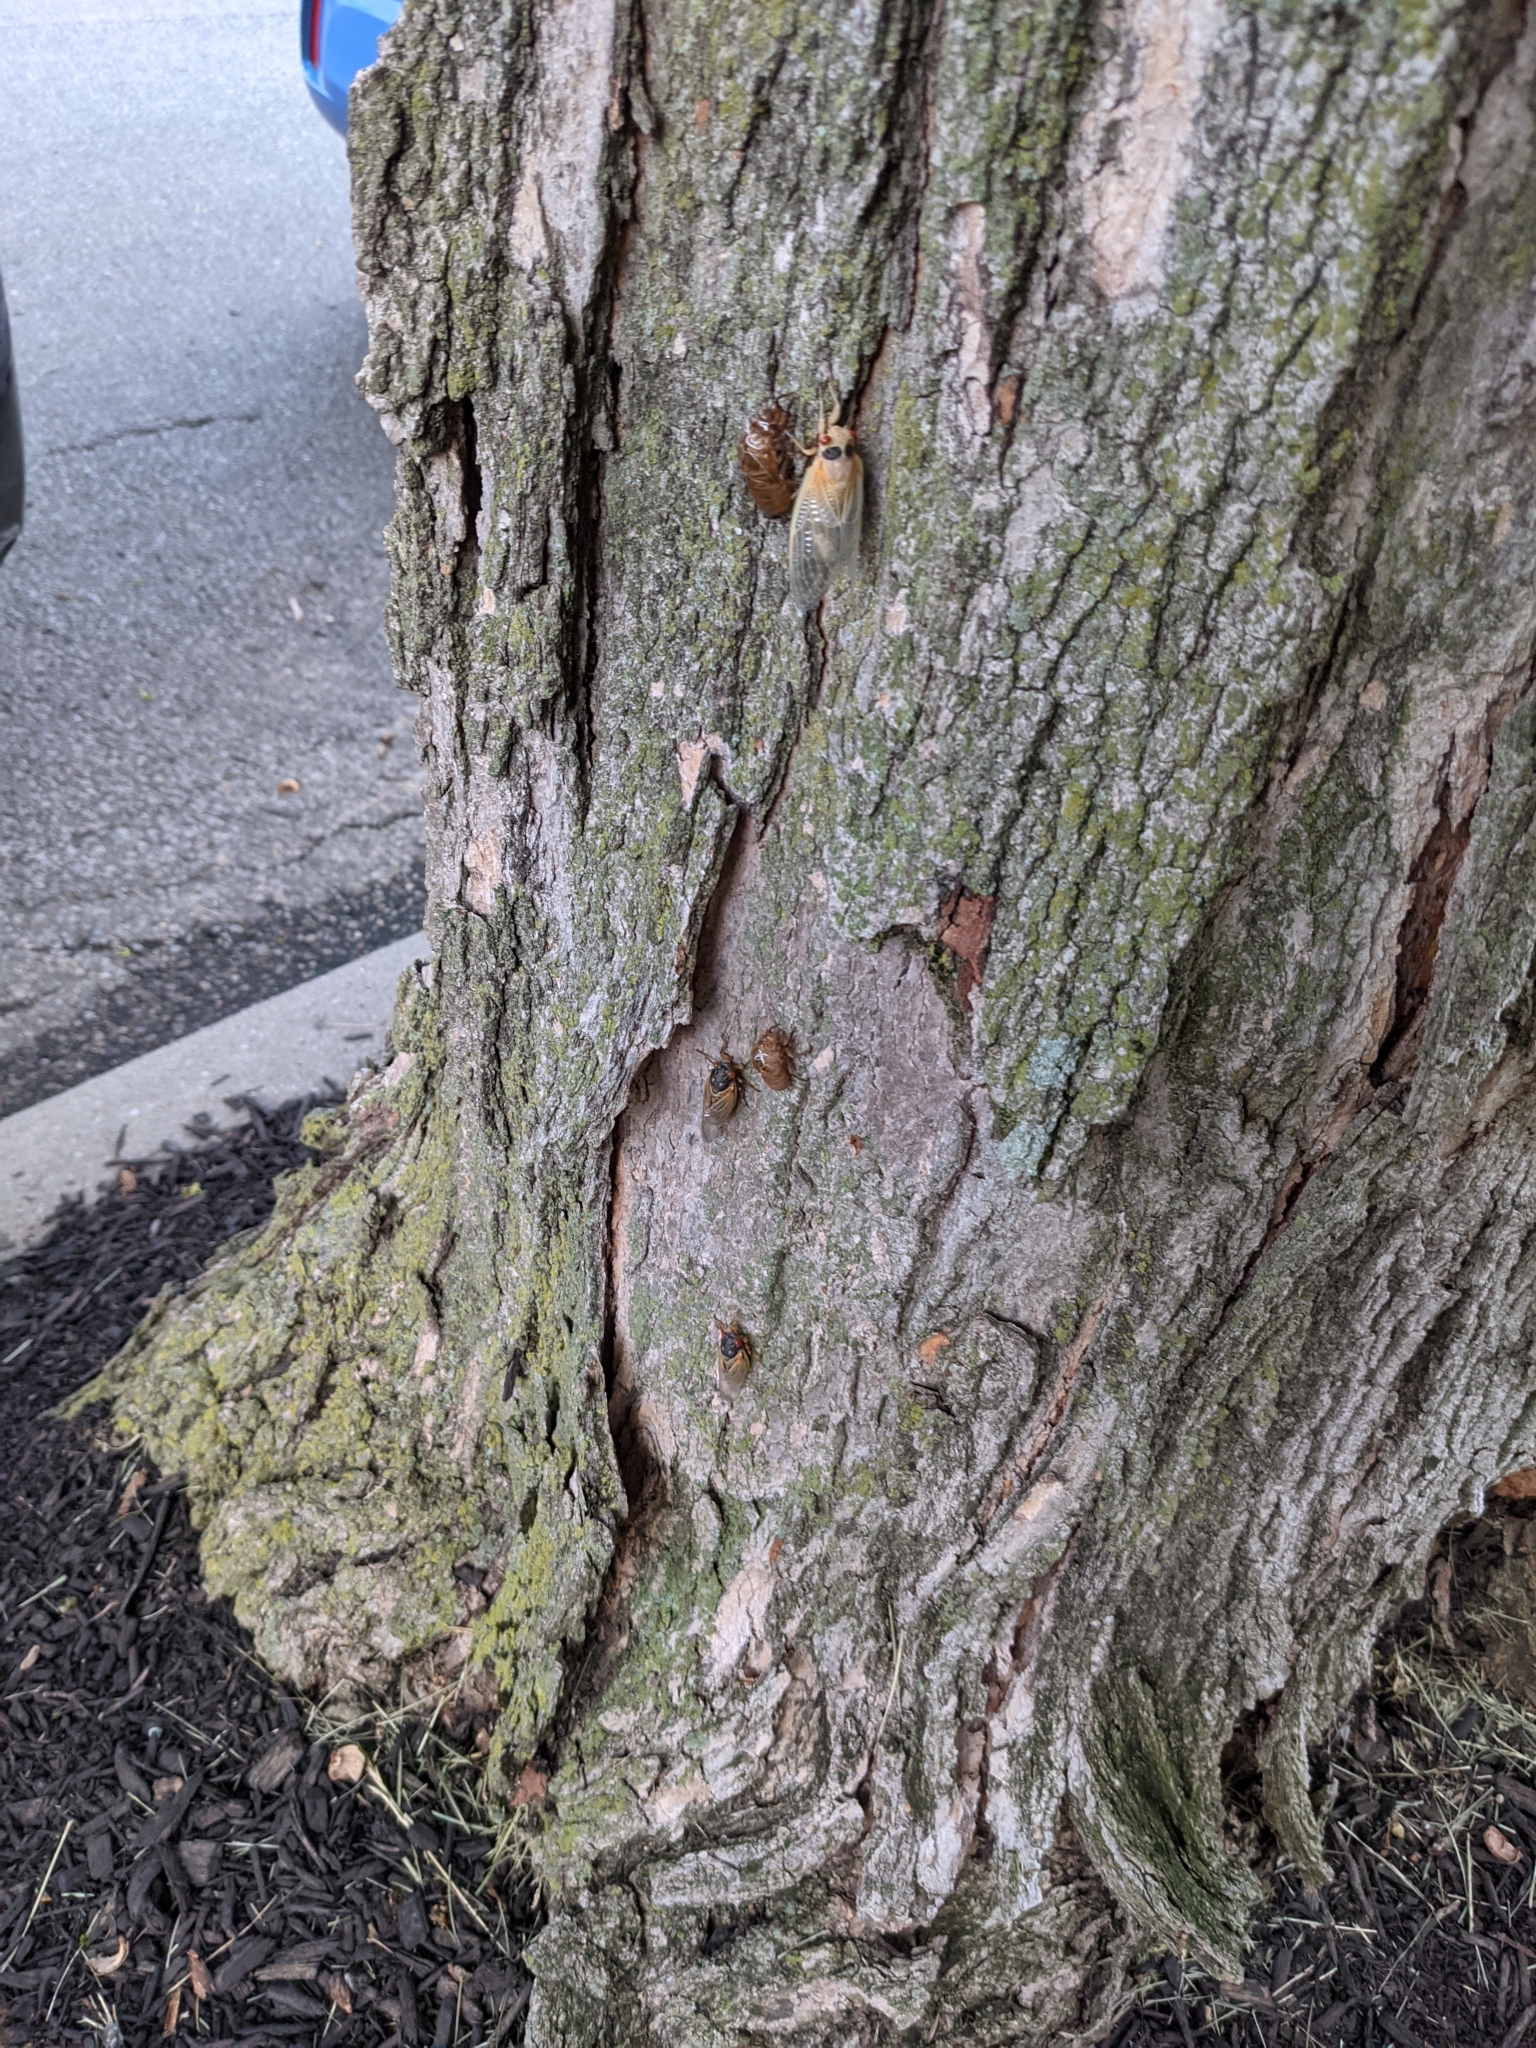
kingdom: Animalia
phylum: Arthropoda
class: Insecta
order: Hemiptera
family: Cicadidae
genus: Magicicada
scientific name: Magicicada
